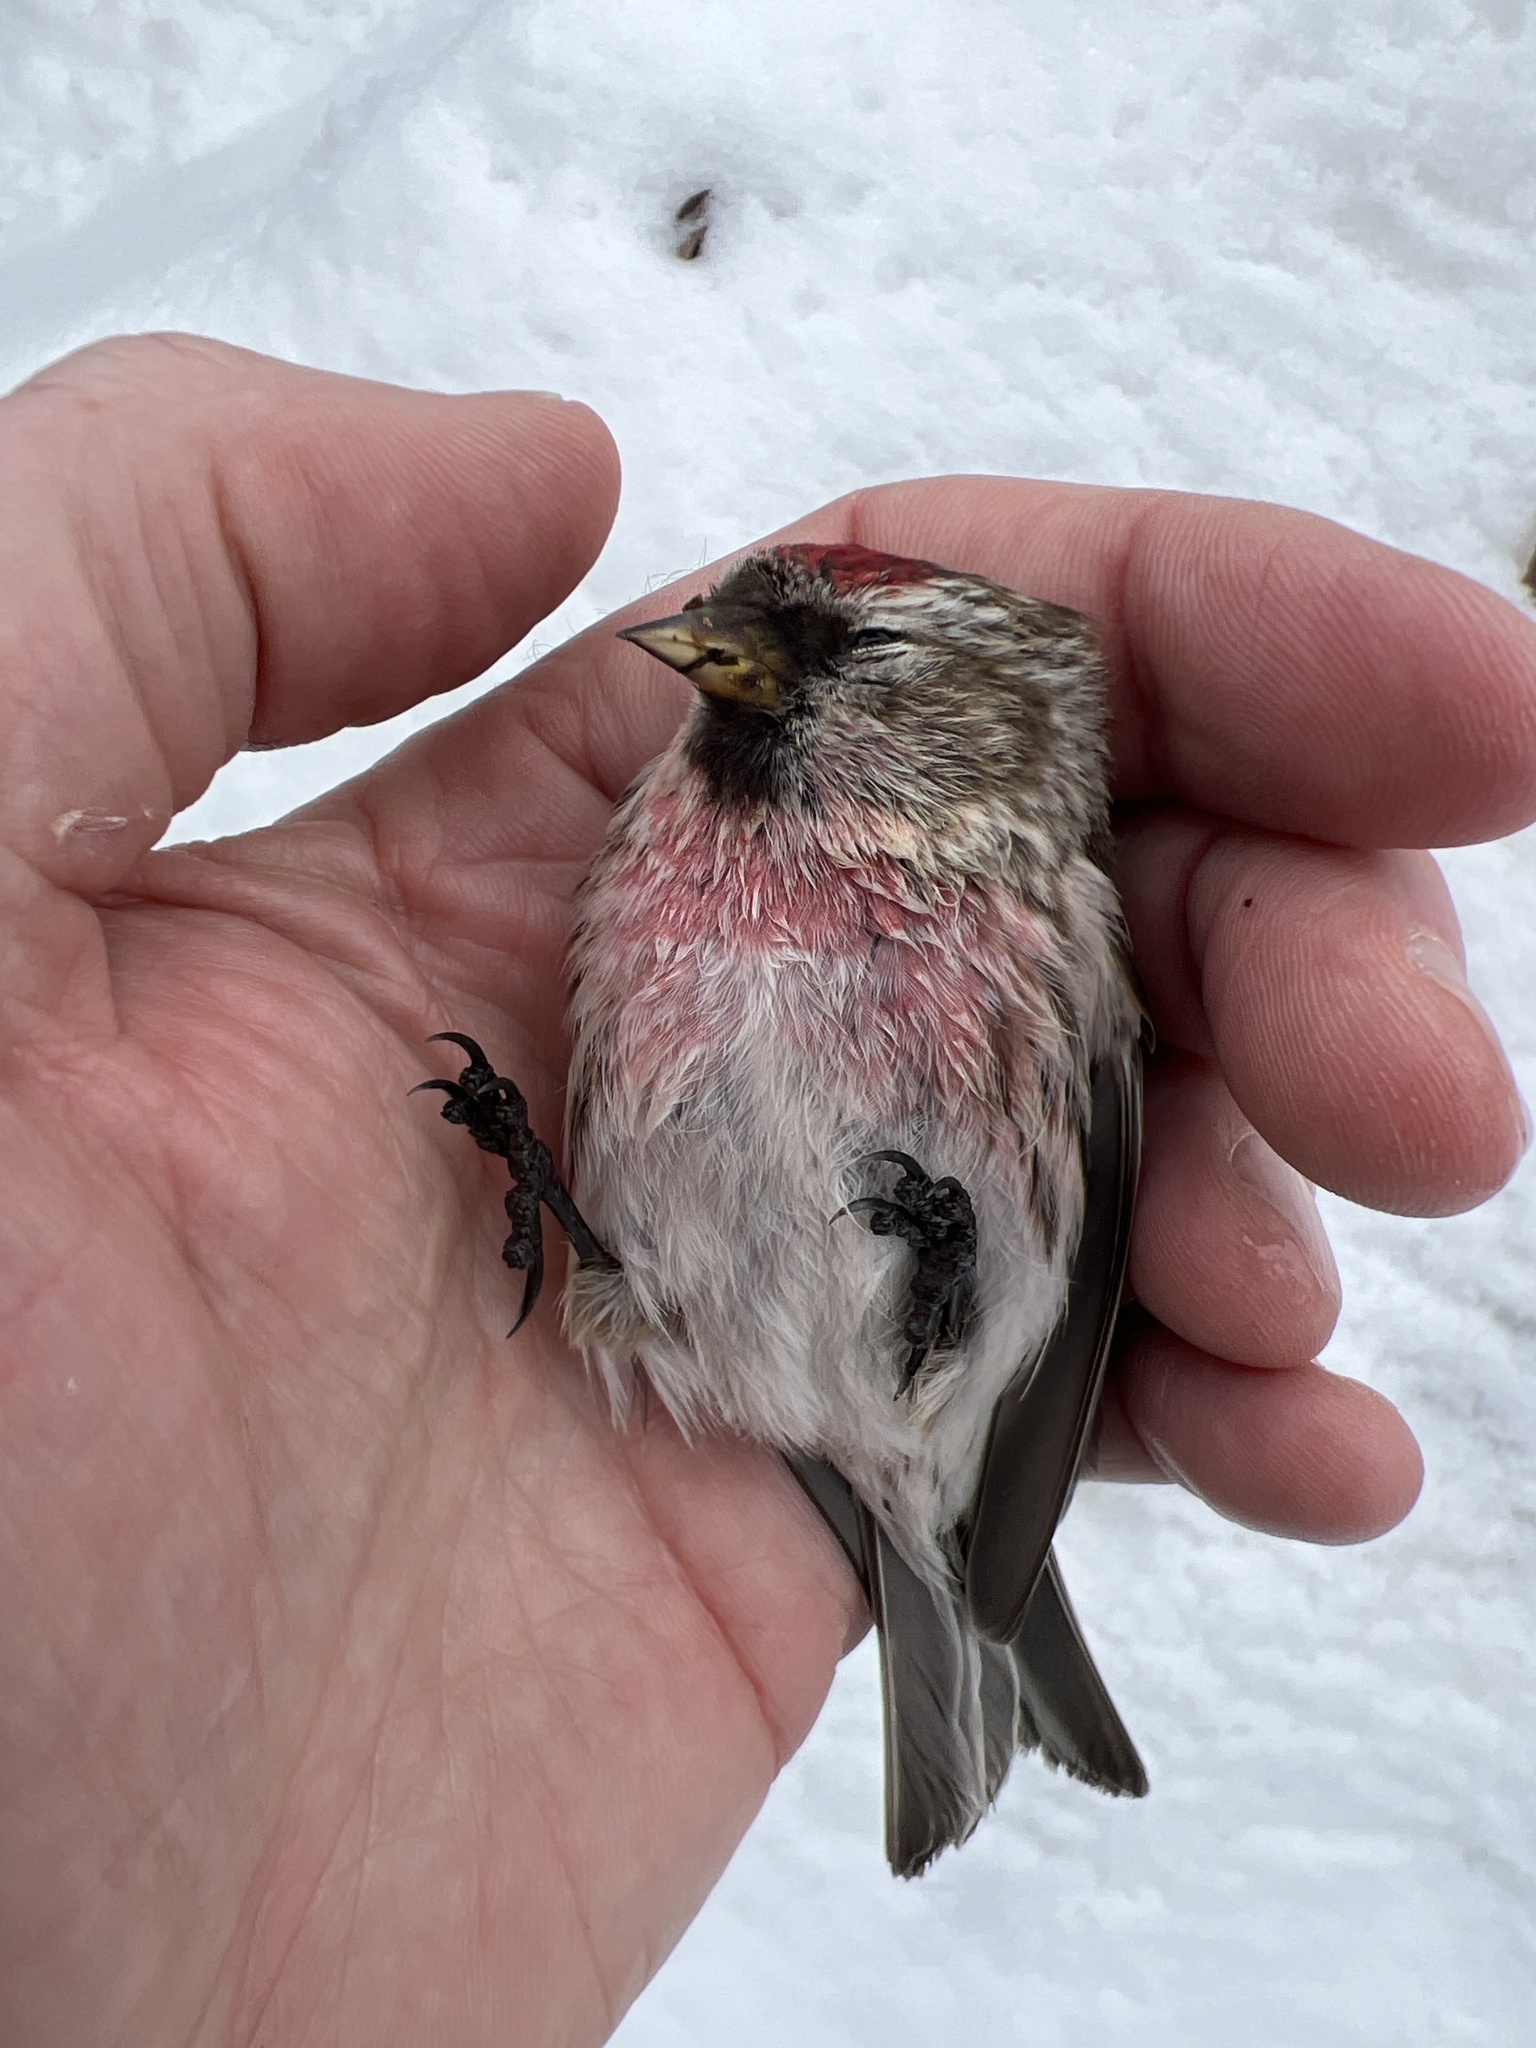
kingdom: Animalia
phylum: Chordata
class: Aves
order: Passeriformes
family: Fringillidae
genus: Acanthis
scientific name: Acanthis flammea
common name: Common redpoll
